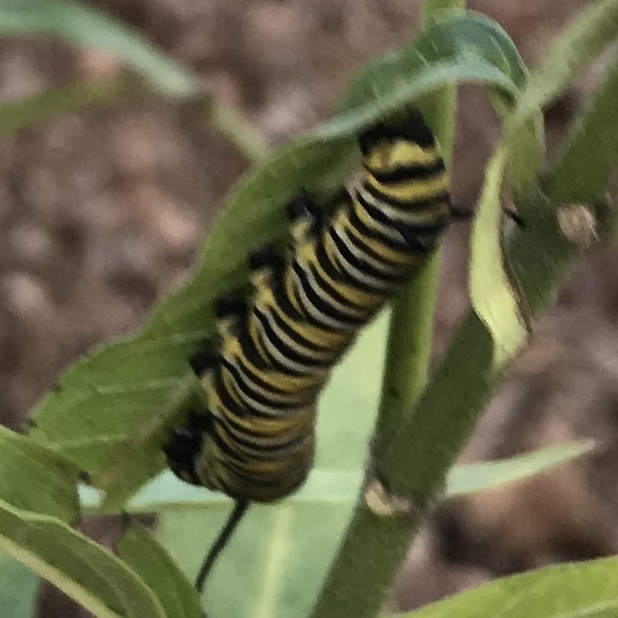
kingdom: Animalia
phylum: Arthropoda
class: Insecta
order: Lepidoptera
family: Nymphalidae
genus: Danaus
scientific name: Danaus plexippus
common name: Monarch
